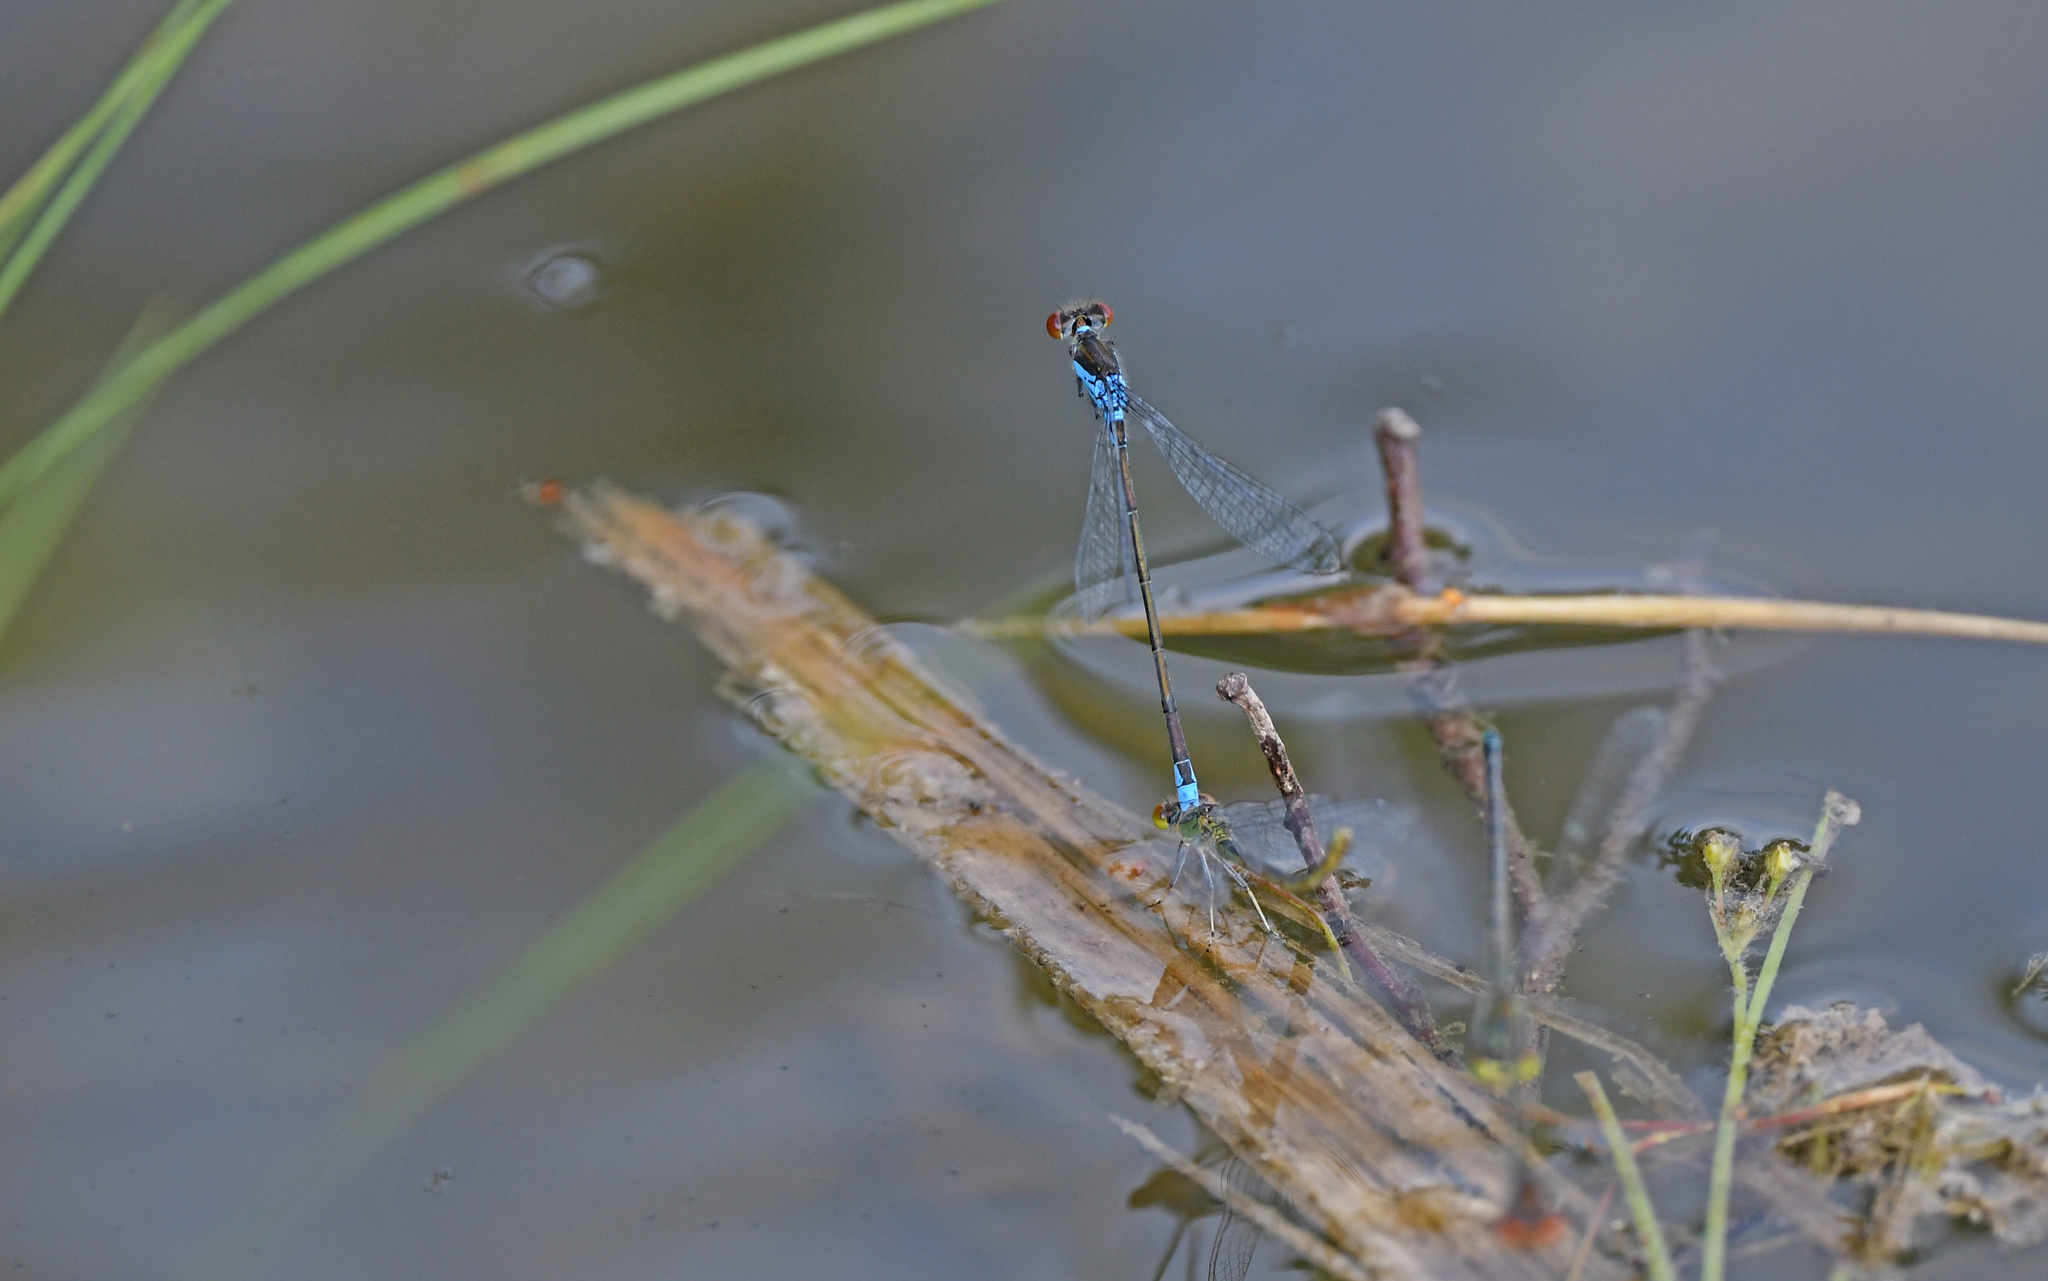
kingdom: Animalia
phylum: Arthropoda
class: Insecta
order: Odonata
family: Coenagrionidae
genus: Erythromma
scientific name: Erythromma viridulum
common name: Small red-eyed damselfly
